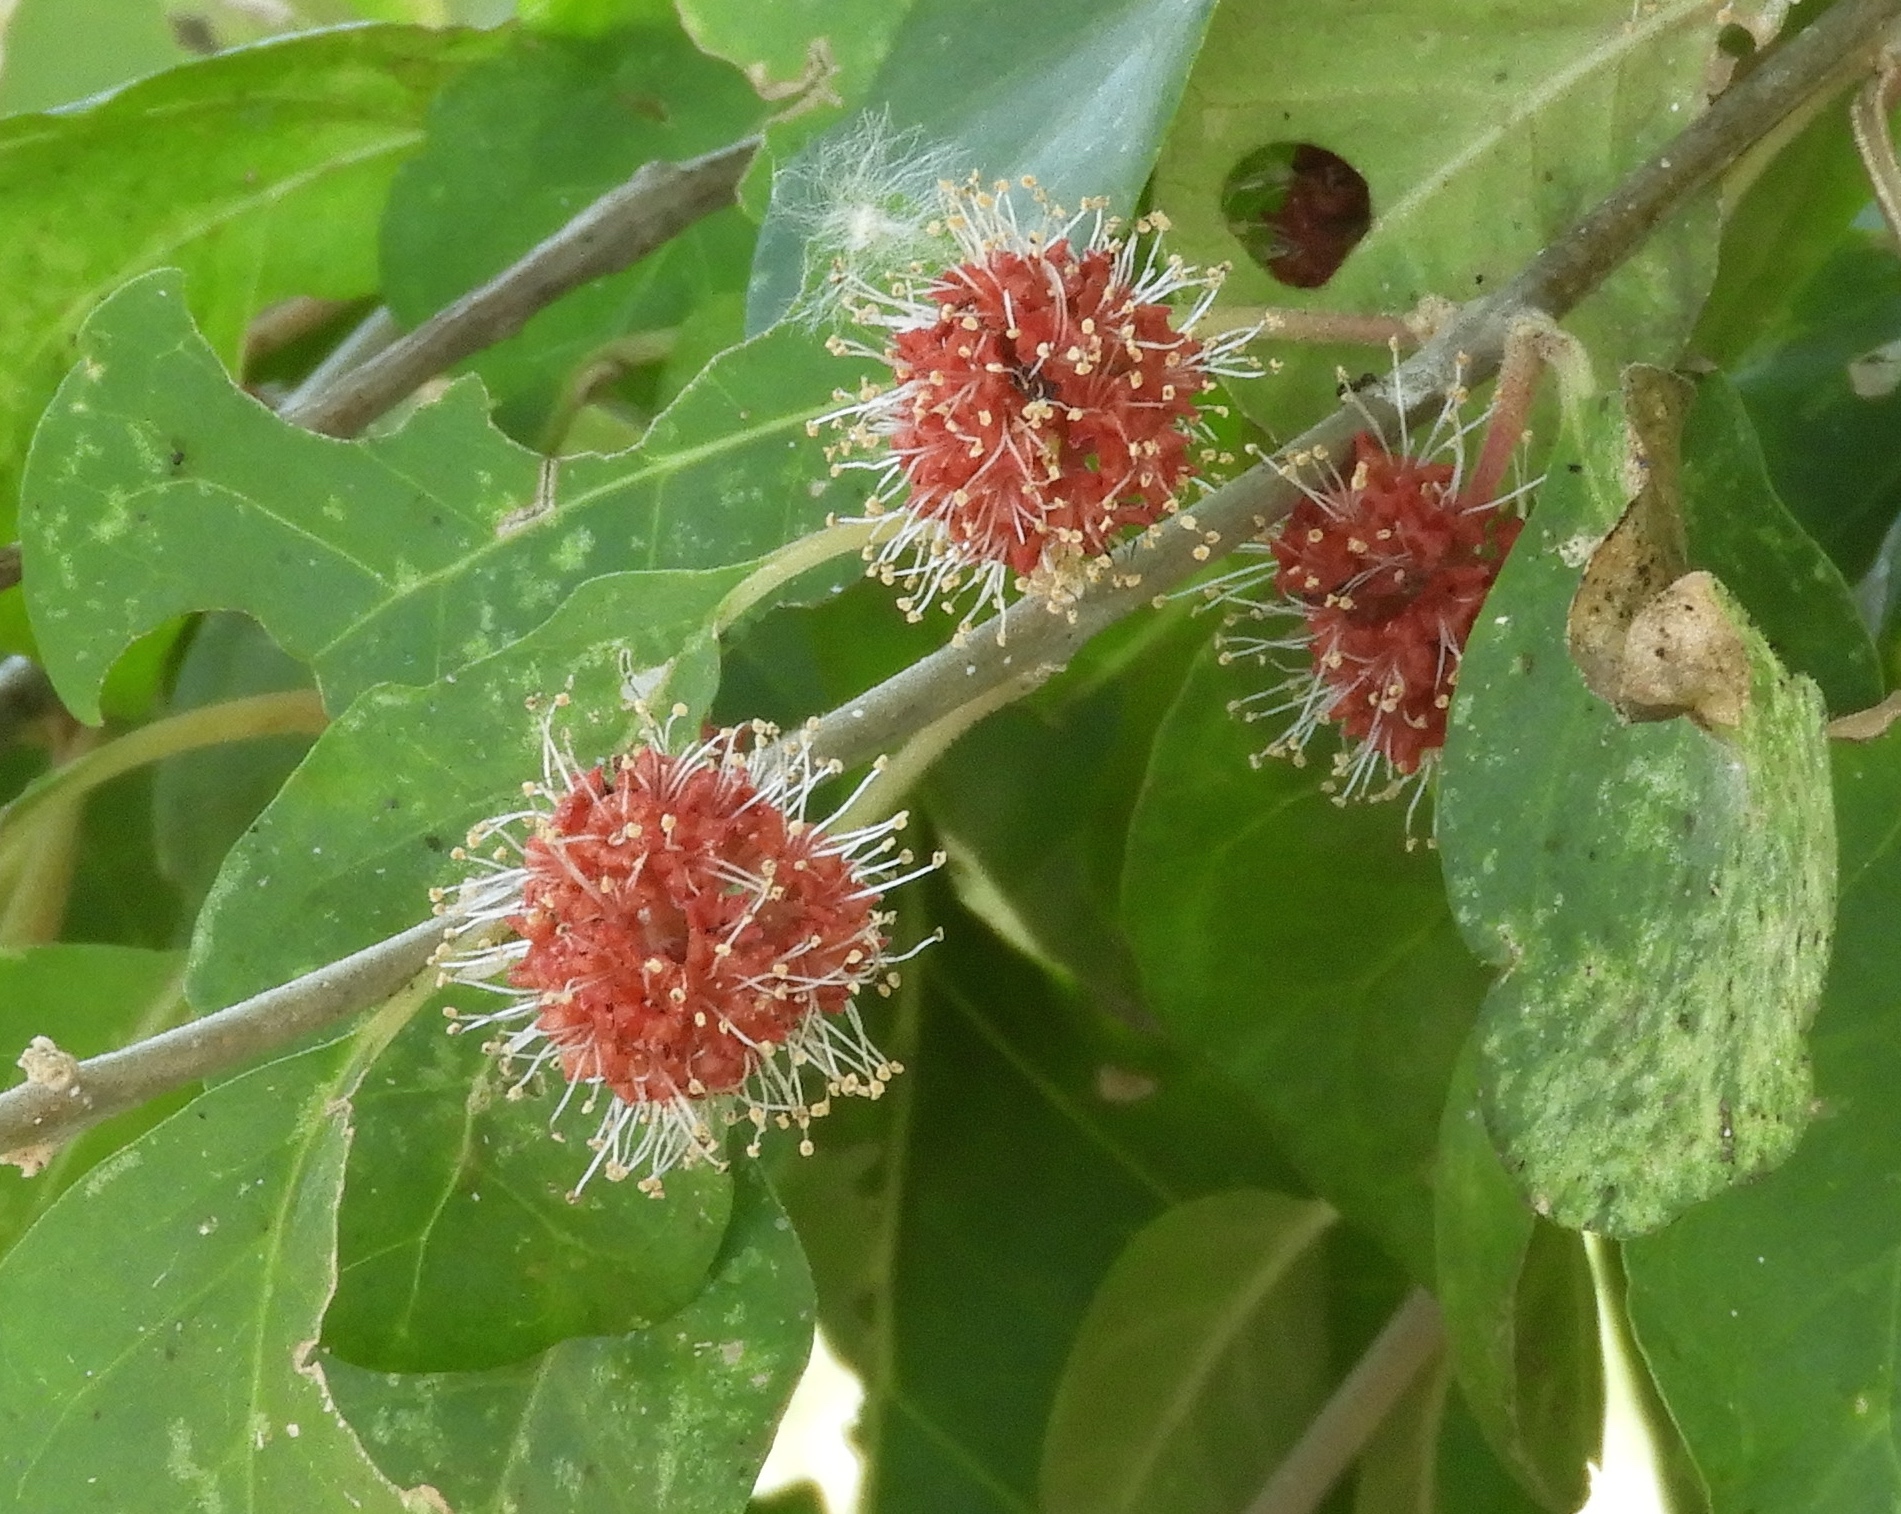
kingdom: Plantae
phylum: Tracheophyta
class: Magnoliopsida
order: Caryophyllales
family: Nyctaginaceae
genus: Pisonia
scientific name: Pisonia capitata
